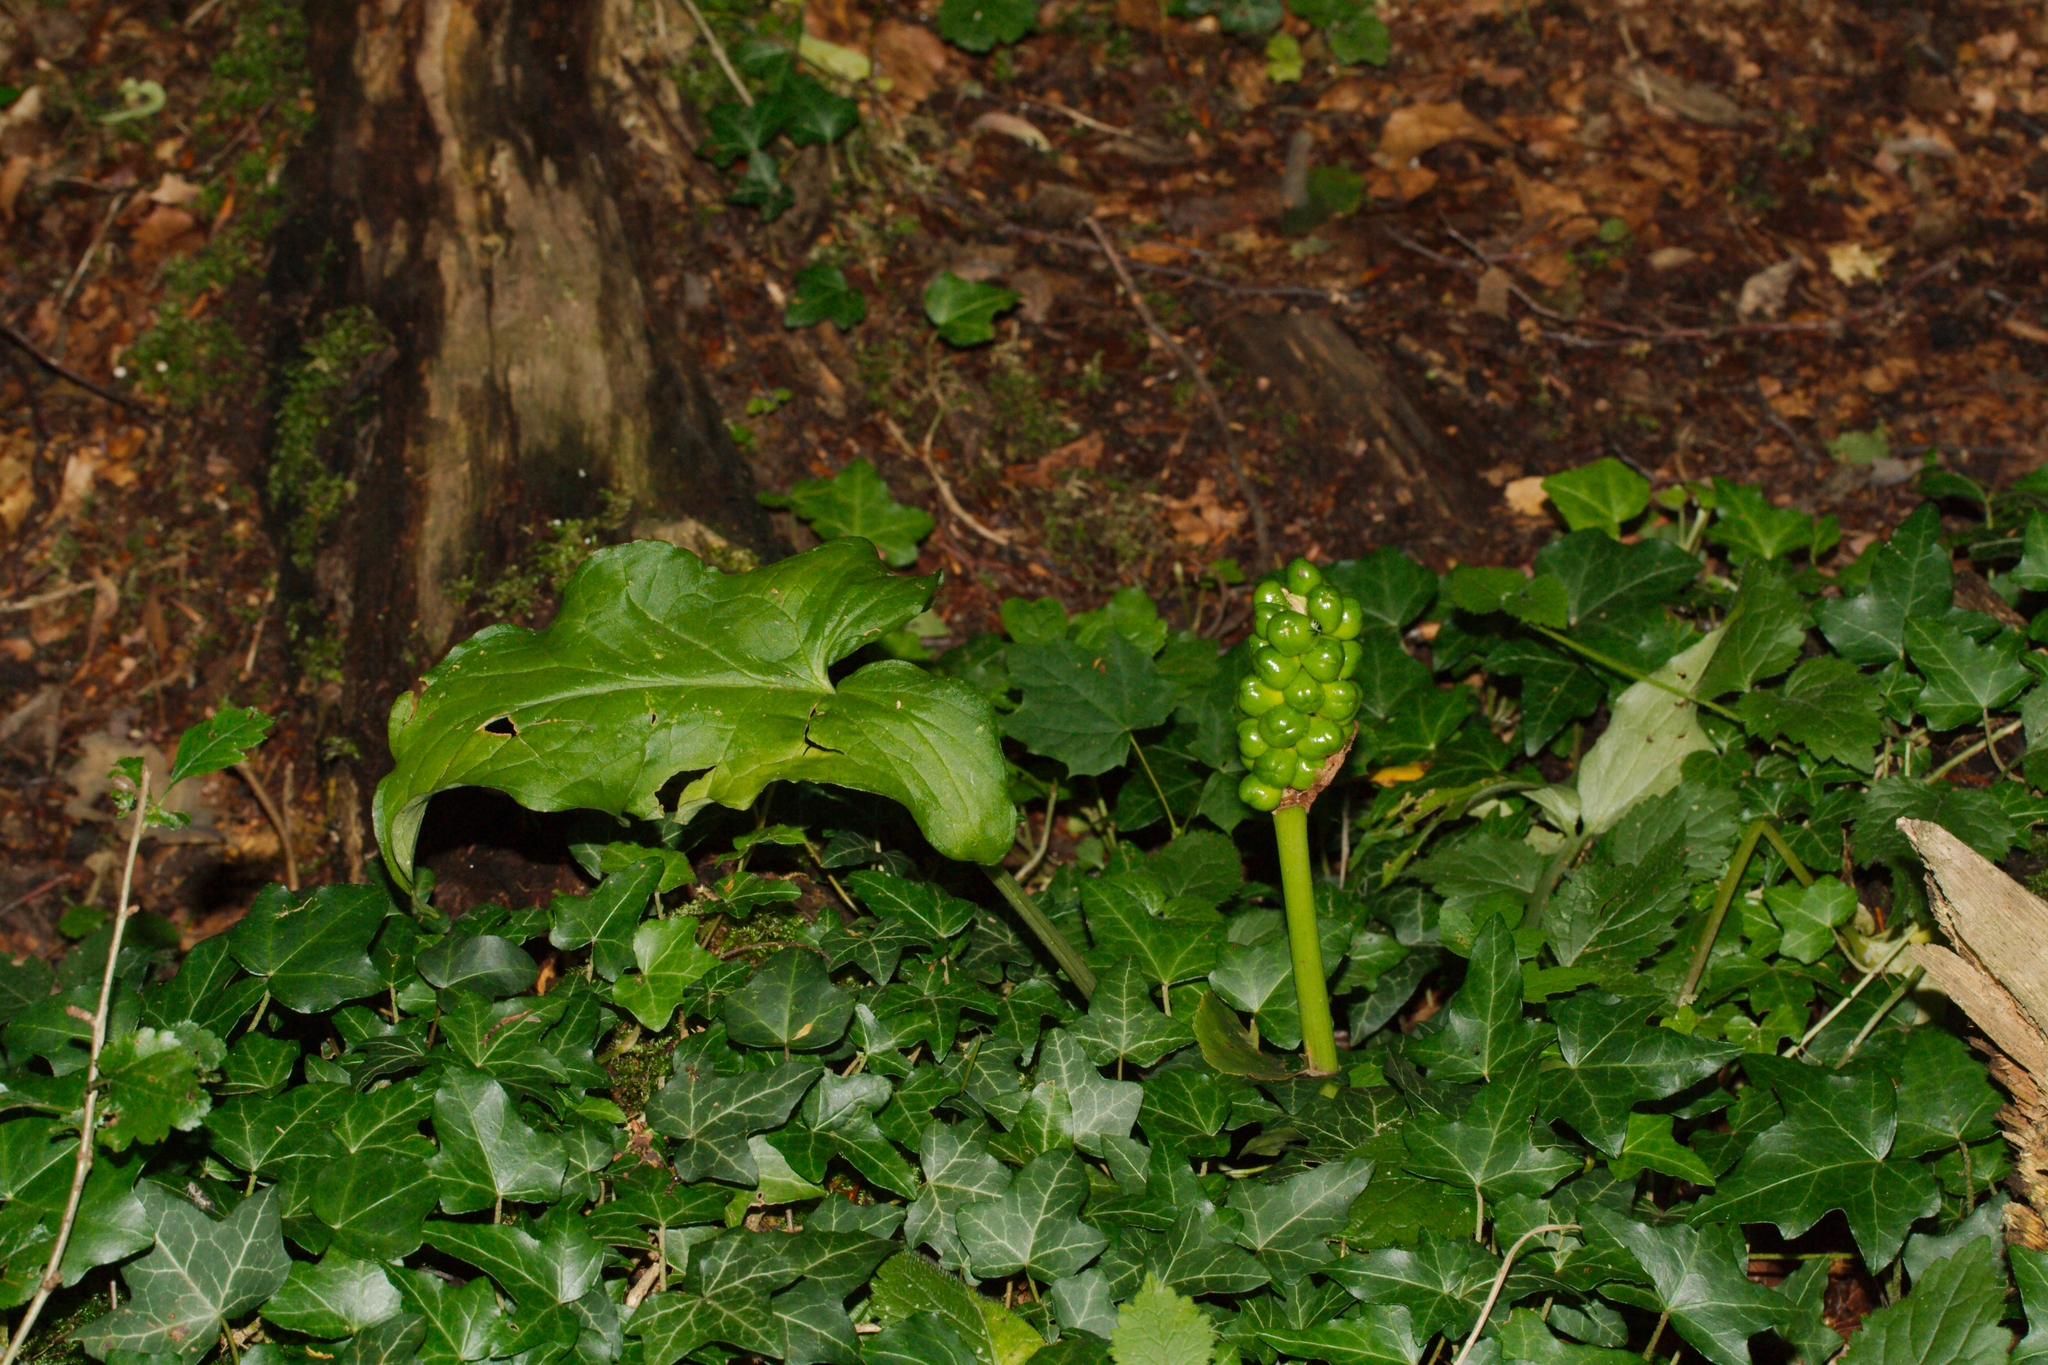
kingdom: Plantae
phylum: Tracheophyta
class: Liliopsida
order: Alismatales
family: Araceae
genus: Arum
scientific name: Arum maculatum
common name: Lords-and-ladies
